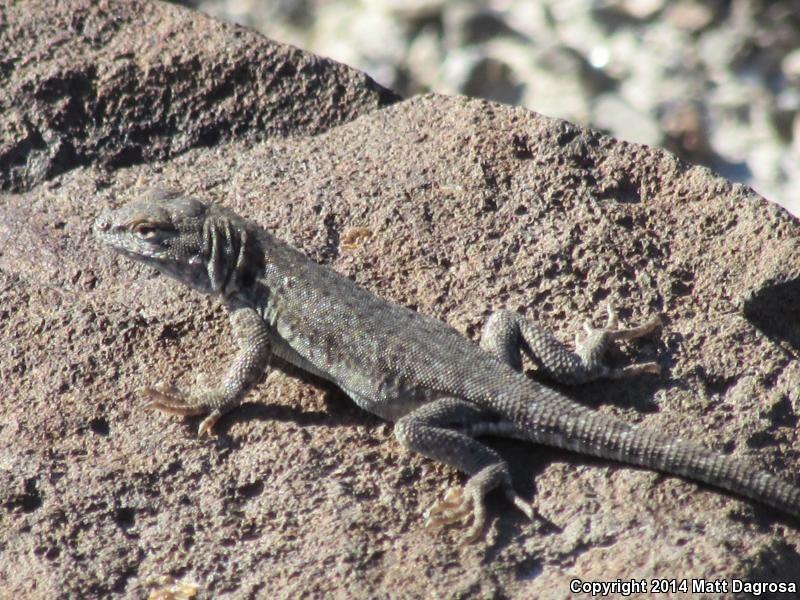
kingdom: Animalia
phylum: Chordata
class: Squamata
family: Phrynosomatidae
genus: Uta
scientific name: Uta stansburiana
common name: Side-blotched lizard
